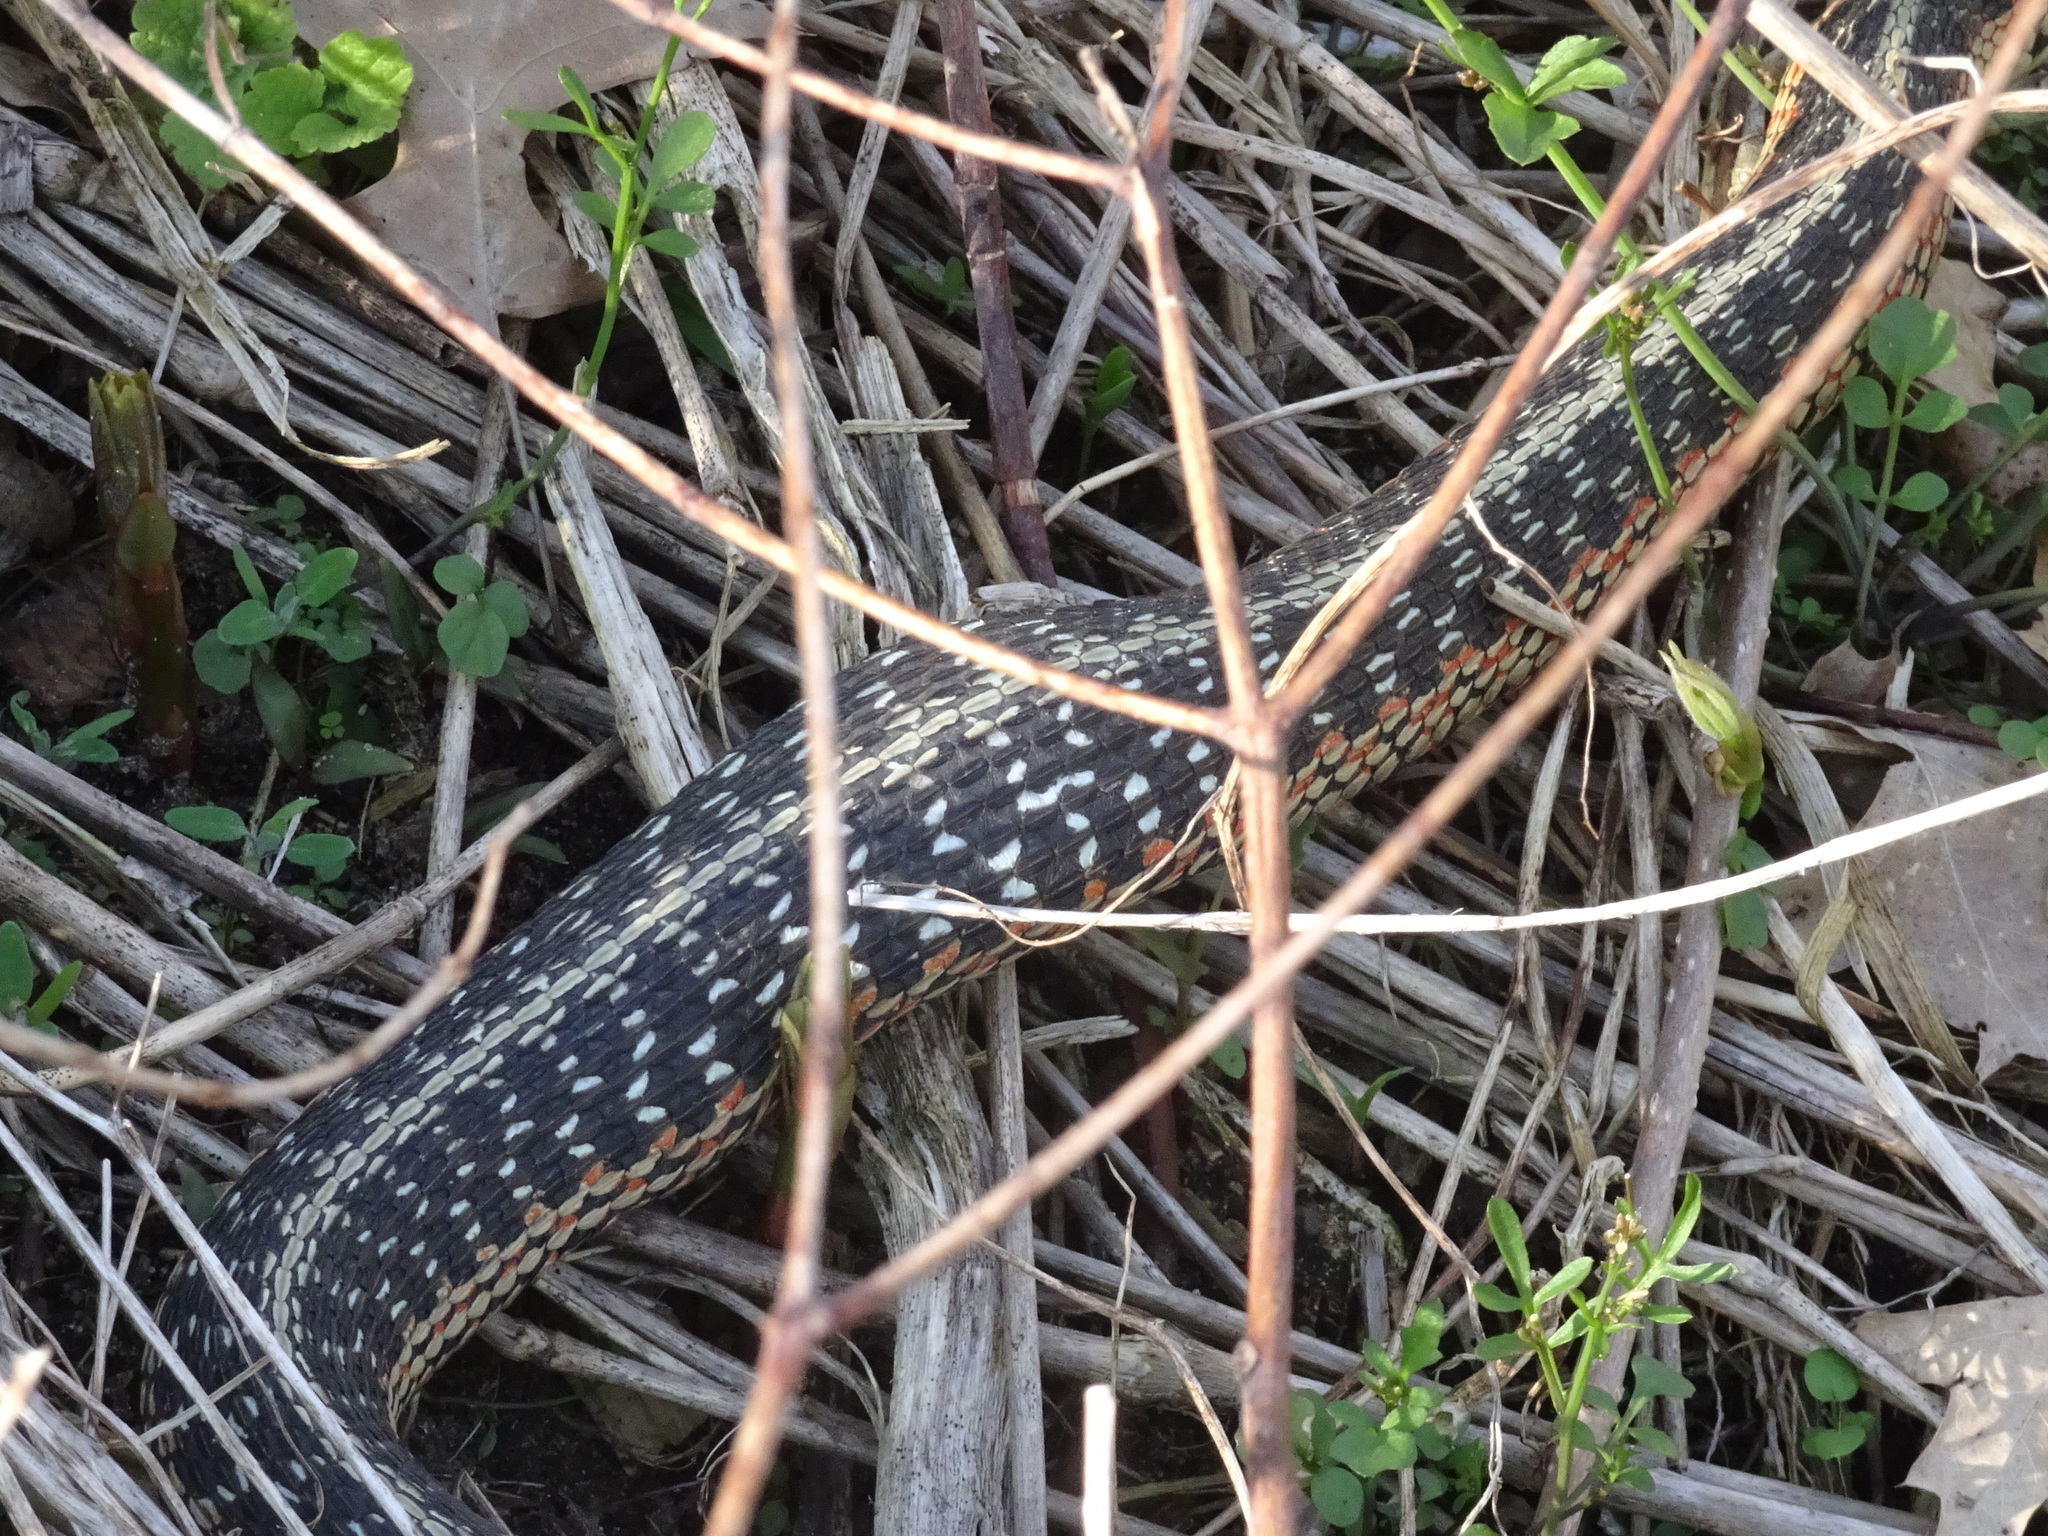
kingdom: Animalia
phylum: Chordata
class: Squamata
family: Colubridae
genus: Thamnophis
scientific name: Thamnophis sirtalis
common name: Common garter snake
